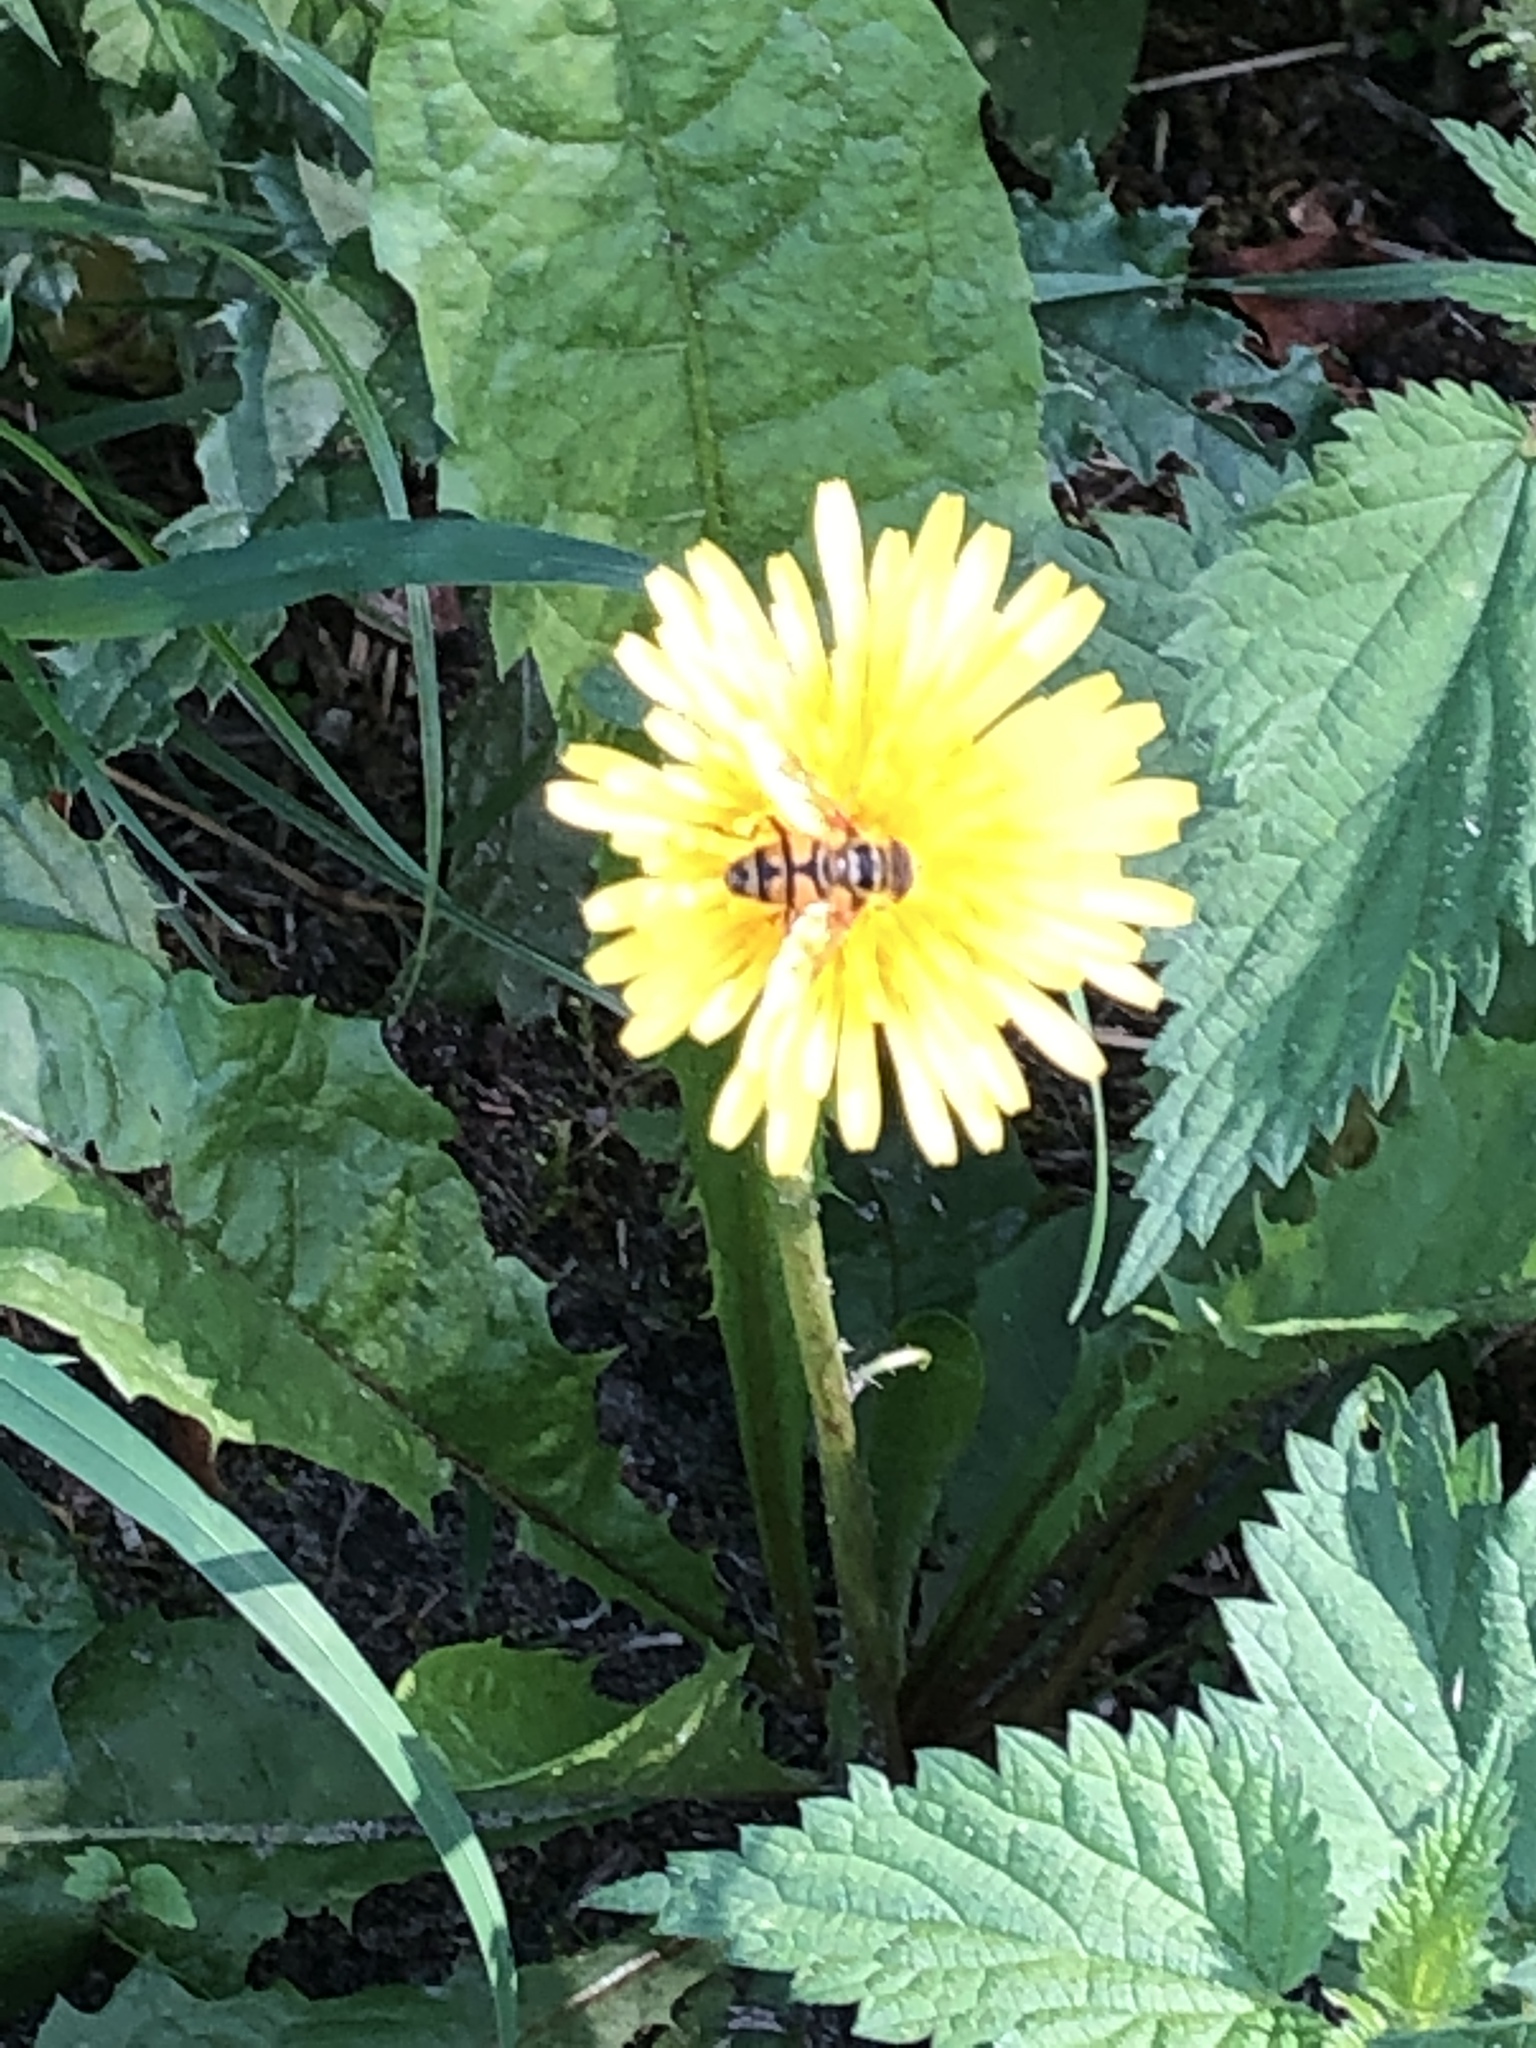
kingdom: Animalia
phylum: Arthropoda
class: Insecta
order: Diptera
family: Syrphidae
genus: Myathropa
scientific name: Myathropa florea
